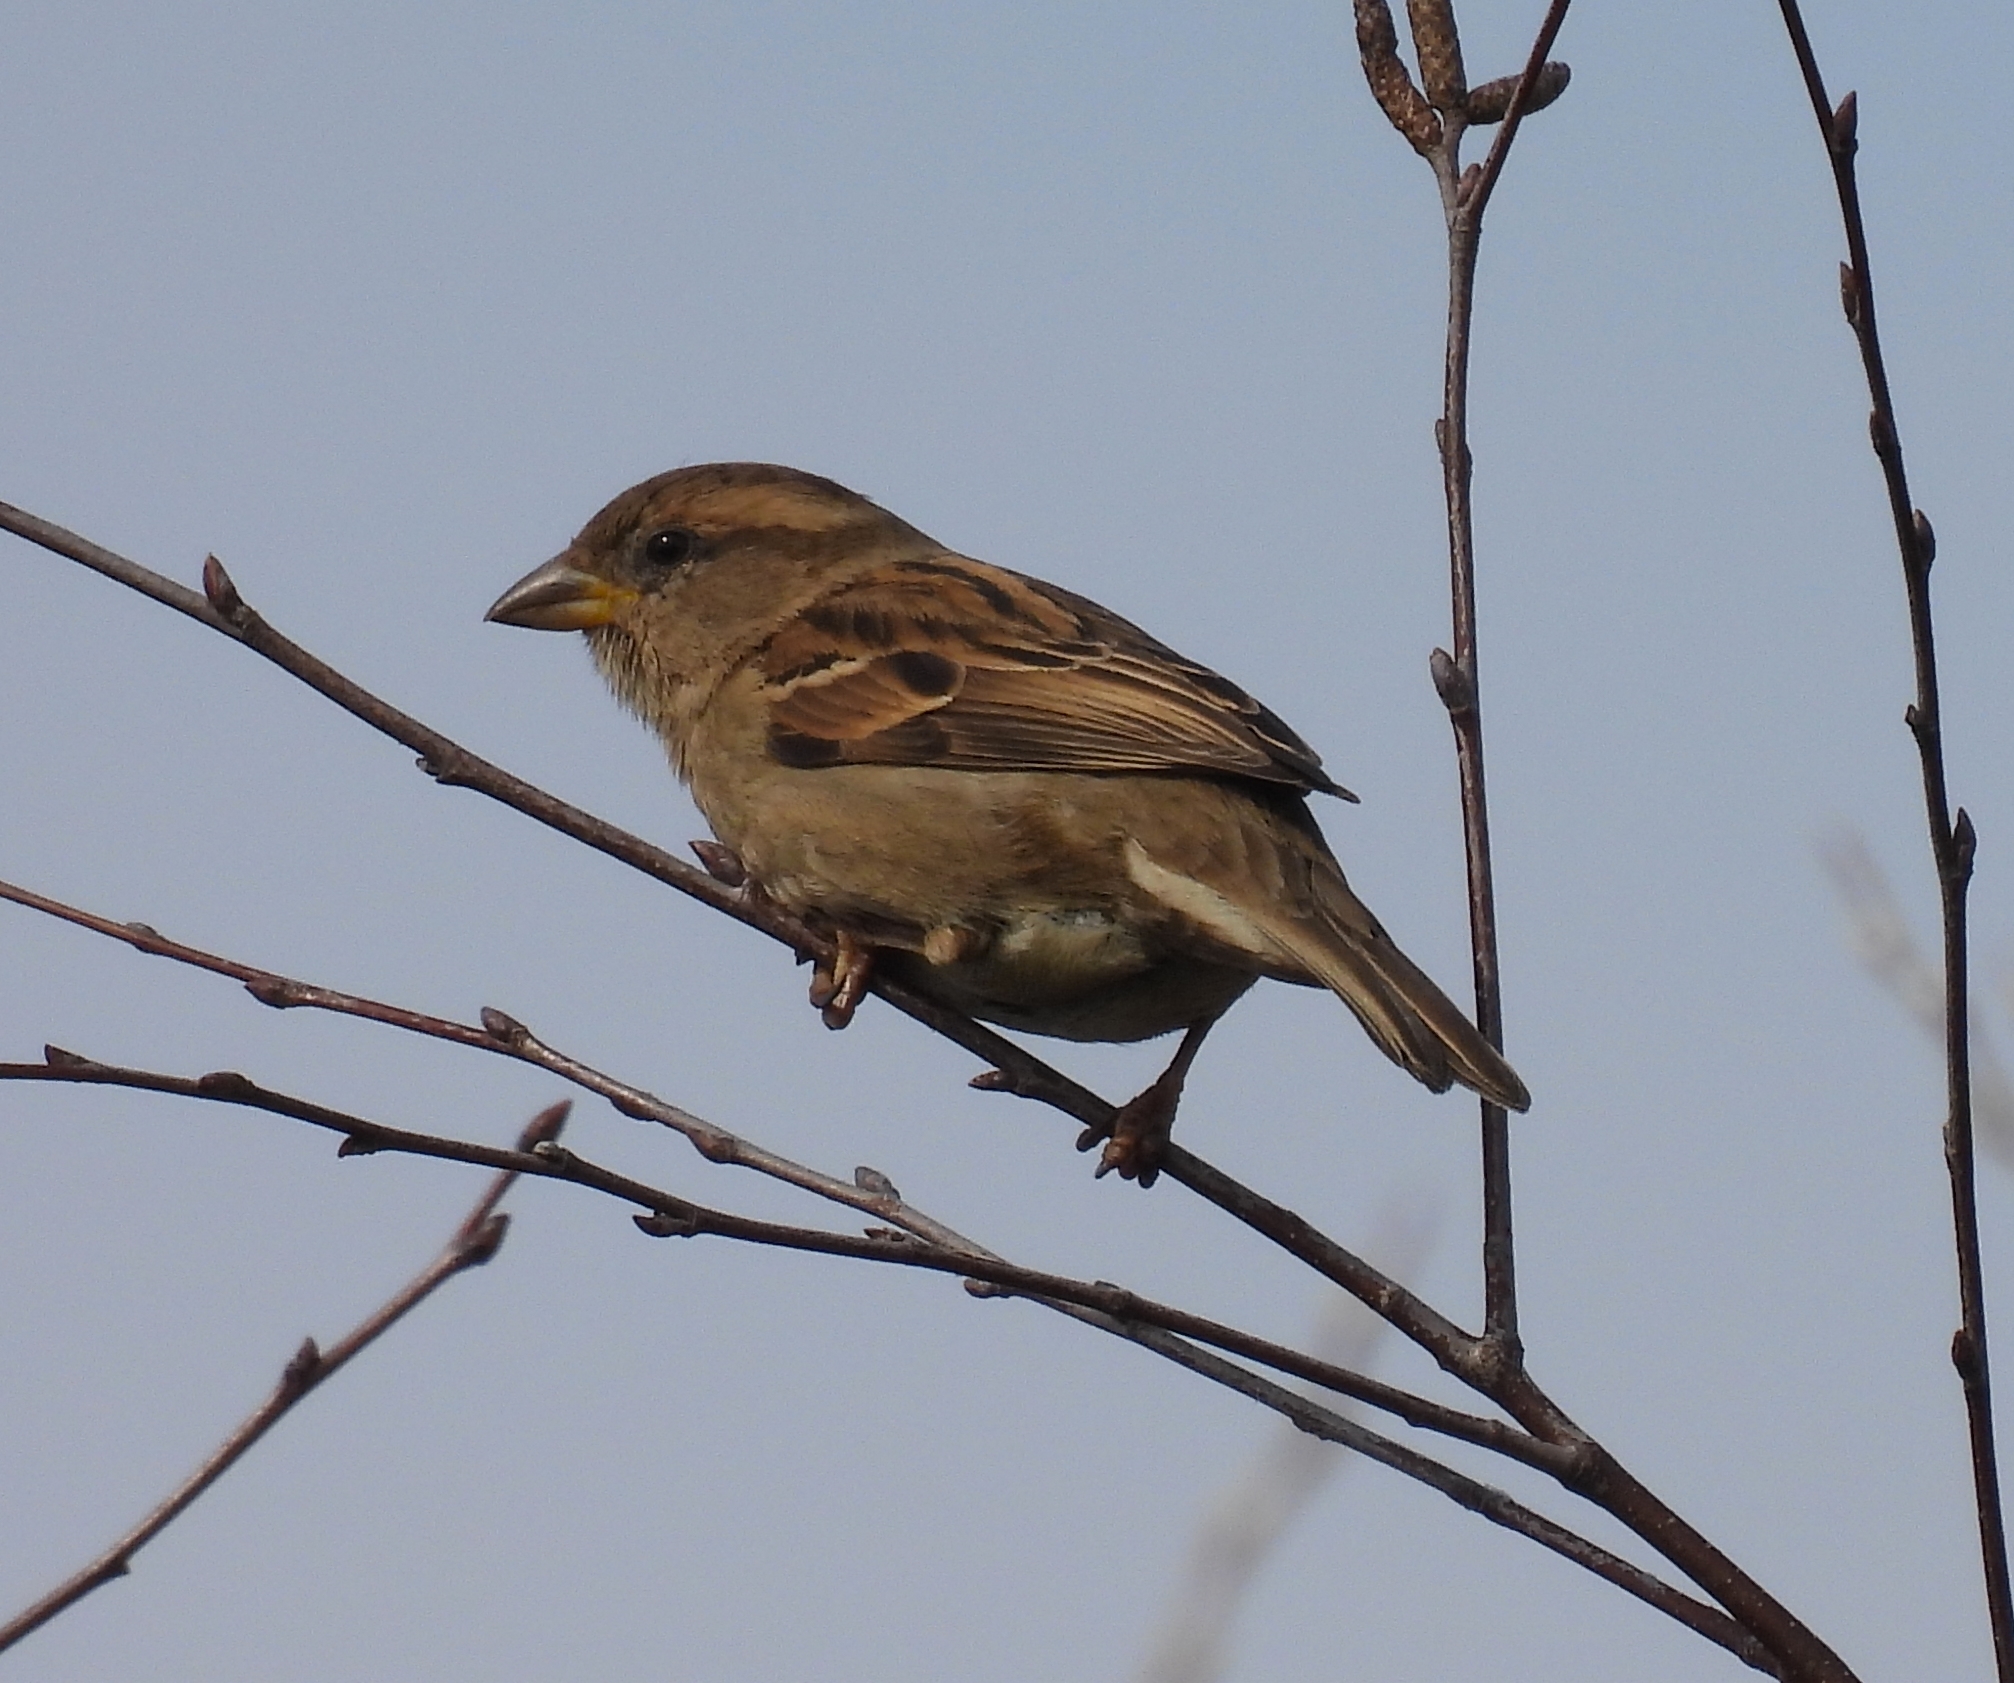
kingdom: Animalia
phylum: Chordata
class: Aves
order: Passeriformes
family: Passeridae
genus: Passer
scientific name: Passer domesticus
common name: House sparrow
